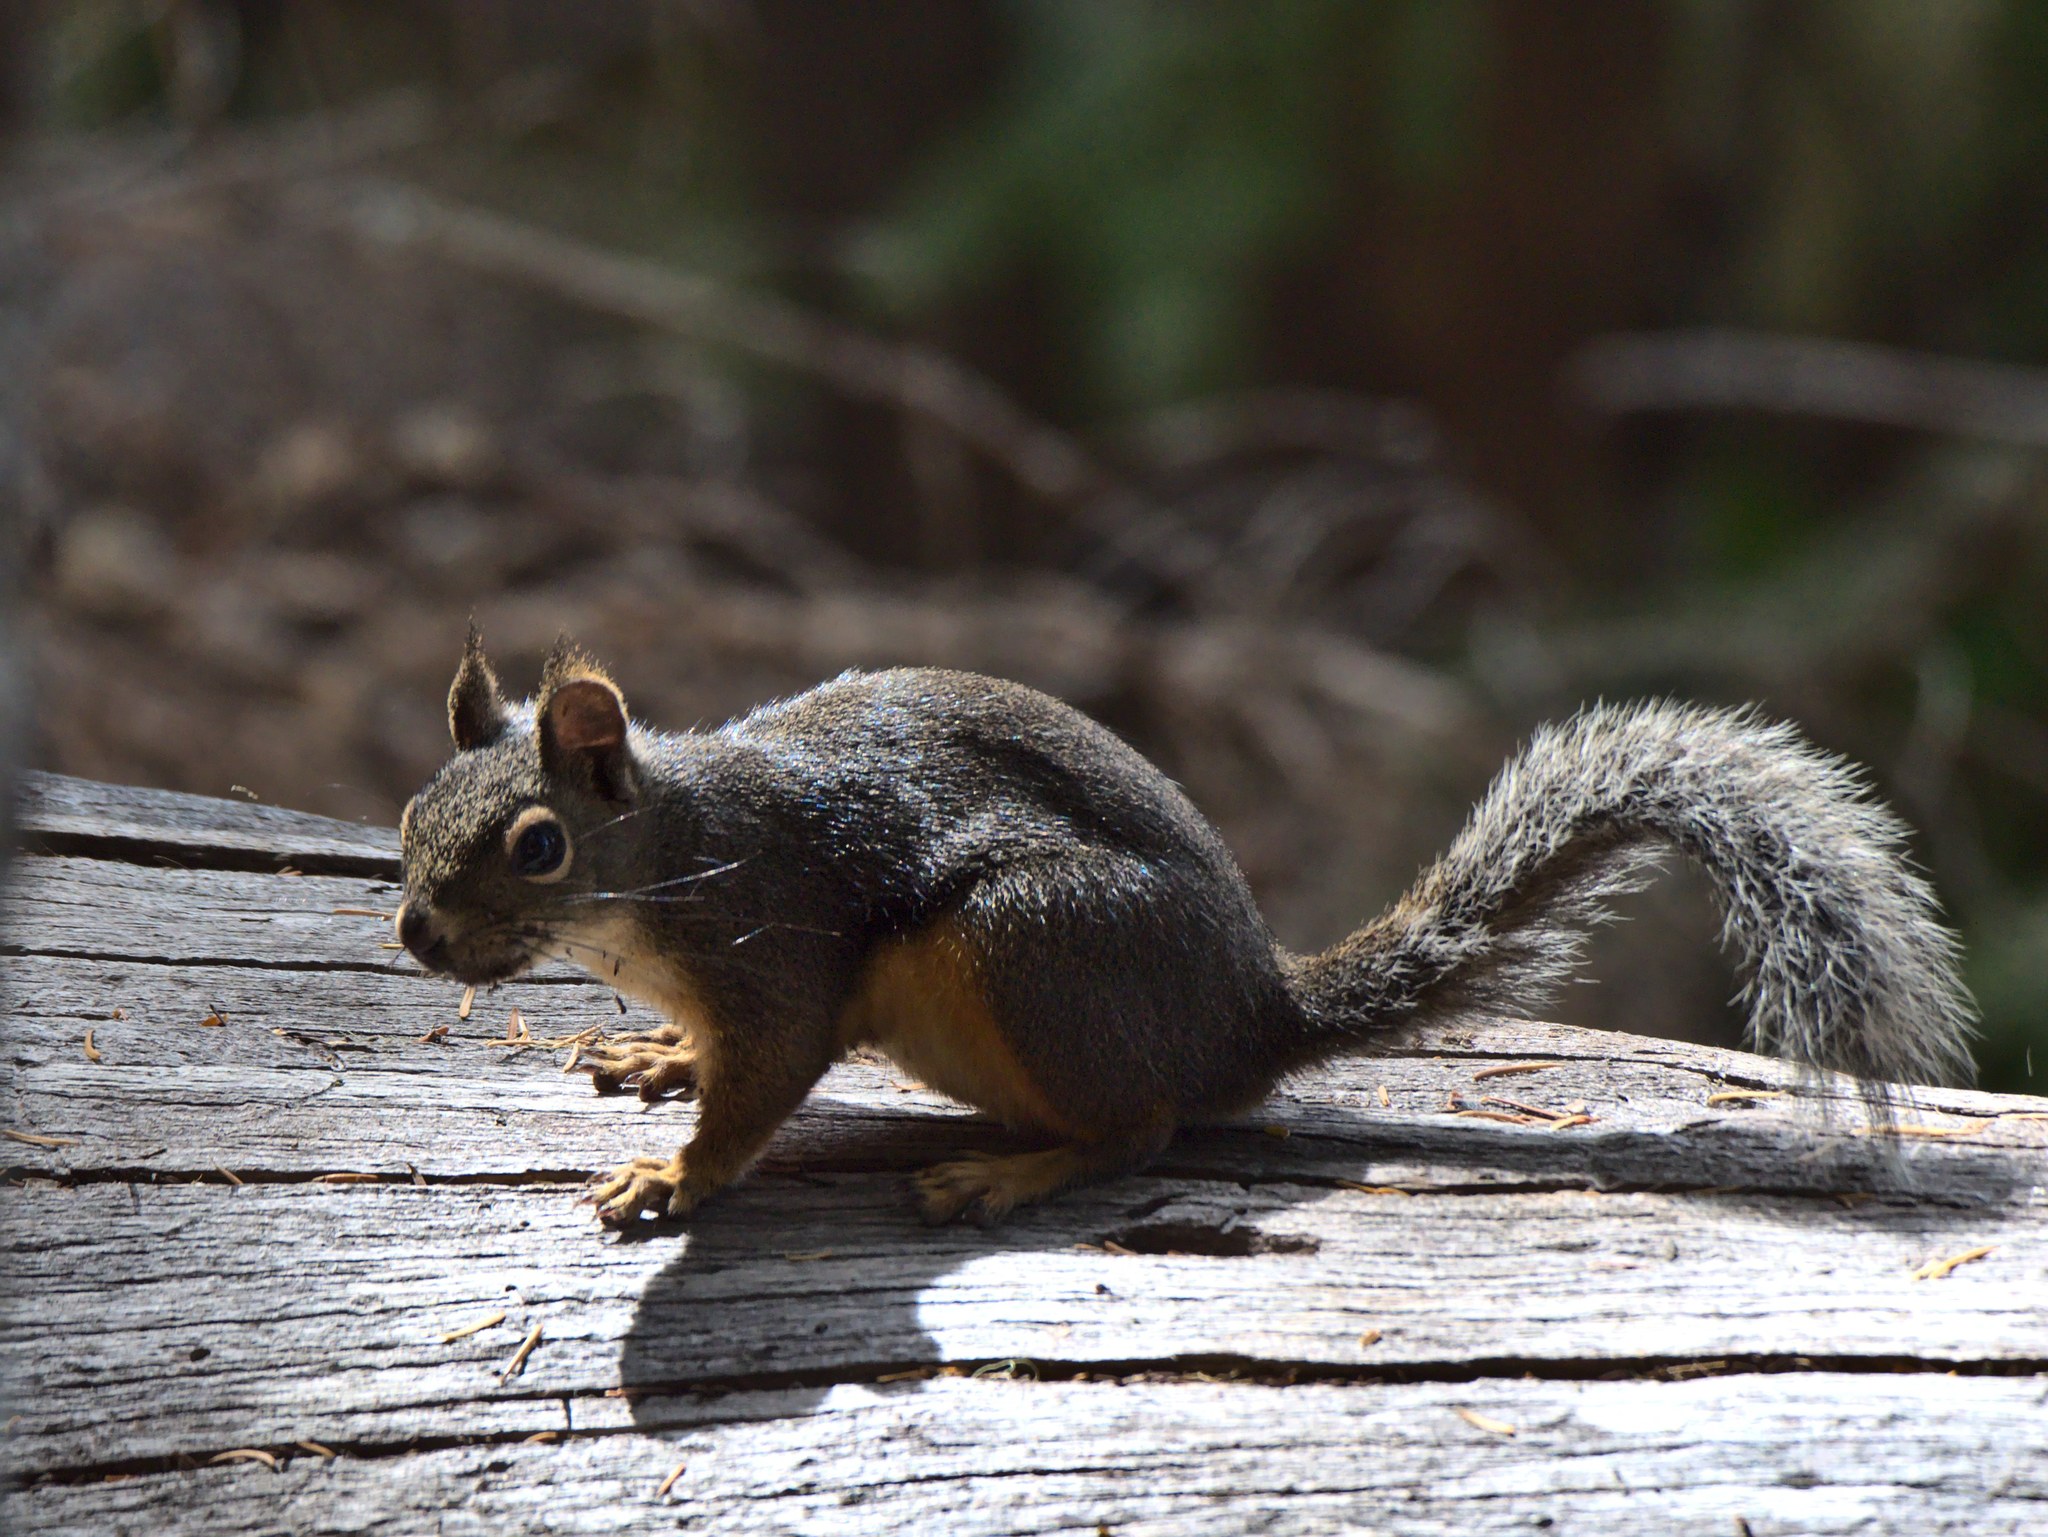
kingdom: Animalia
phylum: Chordata
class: Mammalia
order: Rodentia
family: Sciuridae
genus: Tamiasciurus
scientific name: Tamiasciurus douglasii
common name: Douglas's squirrel
